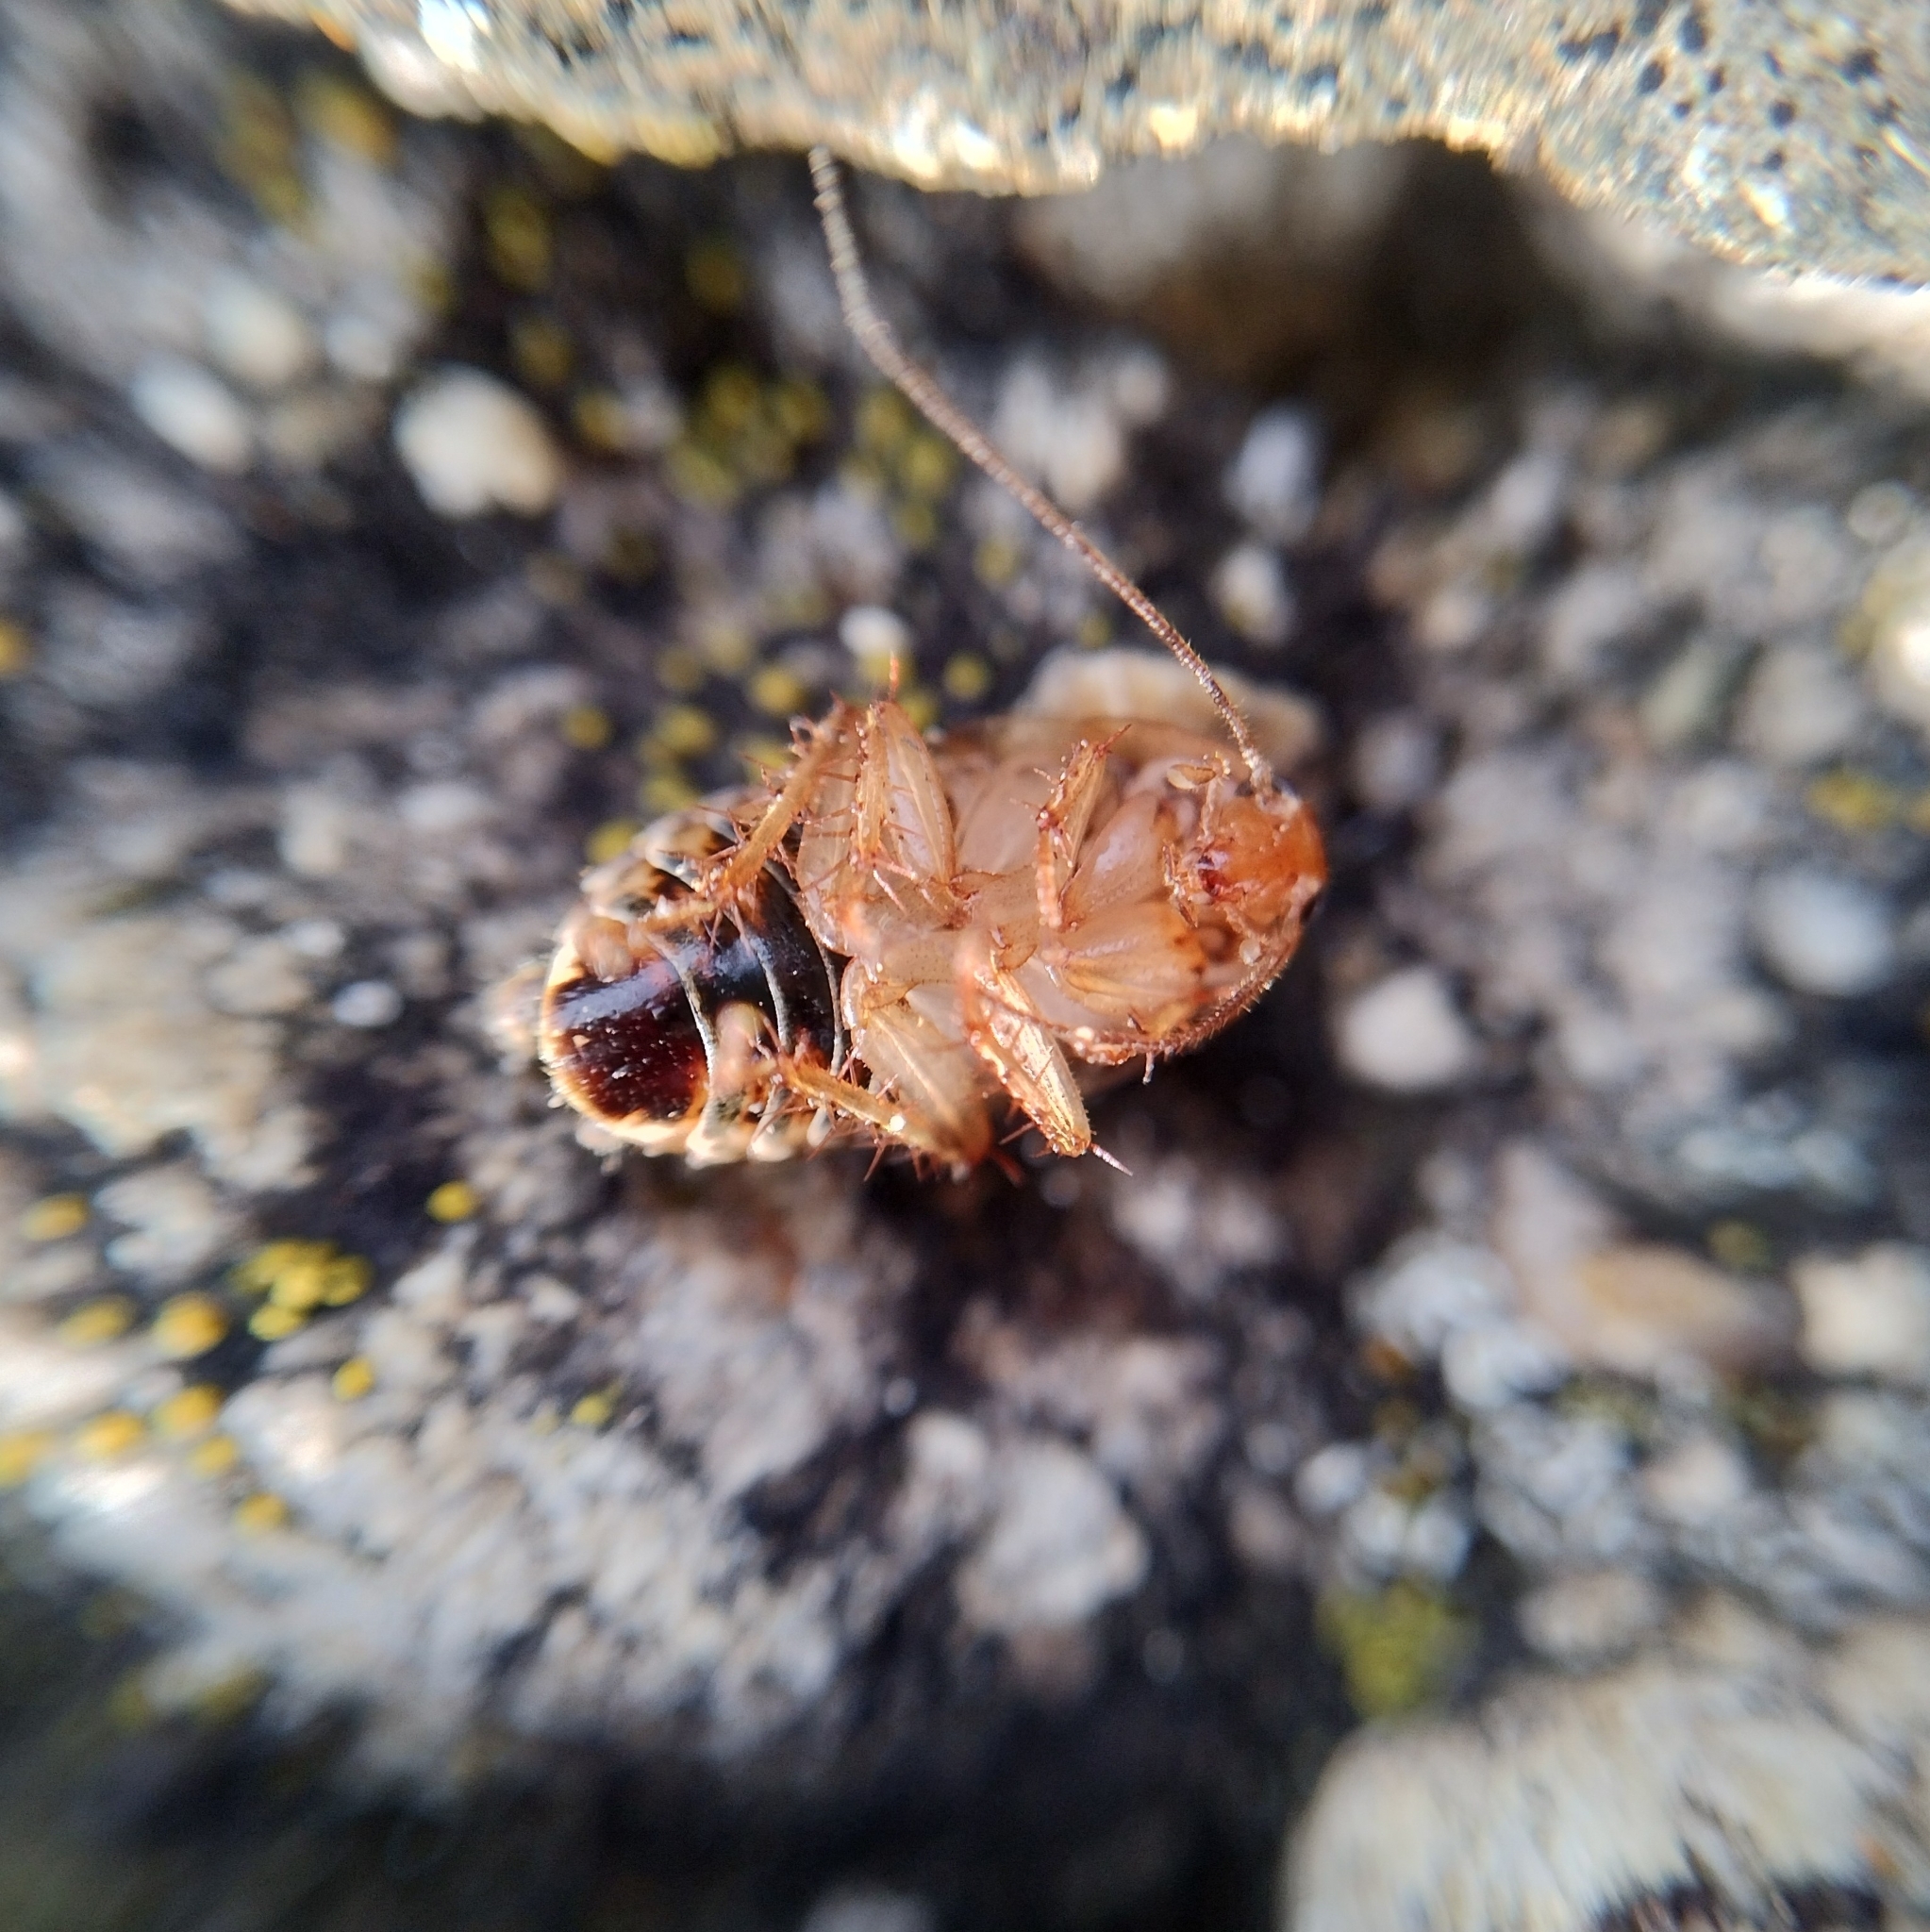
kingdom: Animalia
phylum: Arthropoda
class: Insecta
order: Blattodea
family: Ectobiidae
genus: Phyllodromica
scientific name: Phyllodromica carniolica
